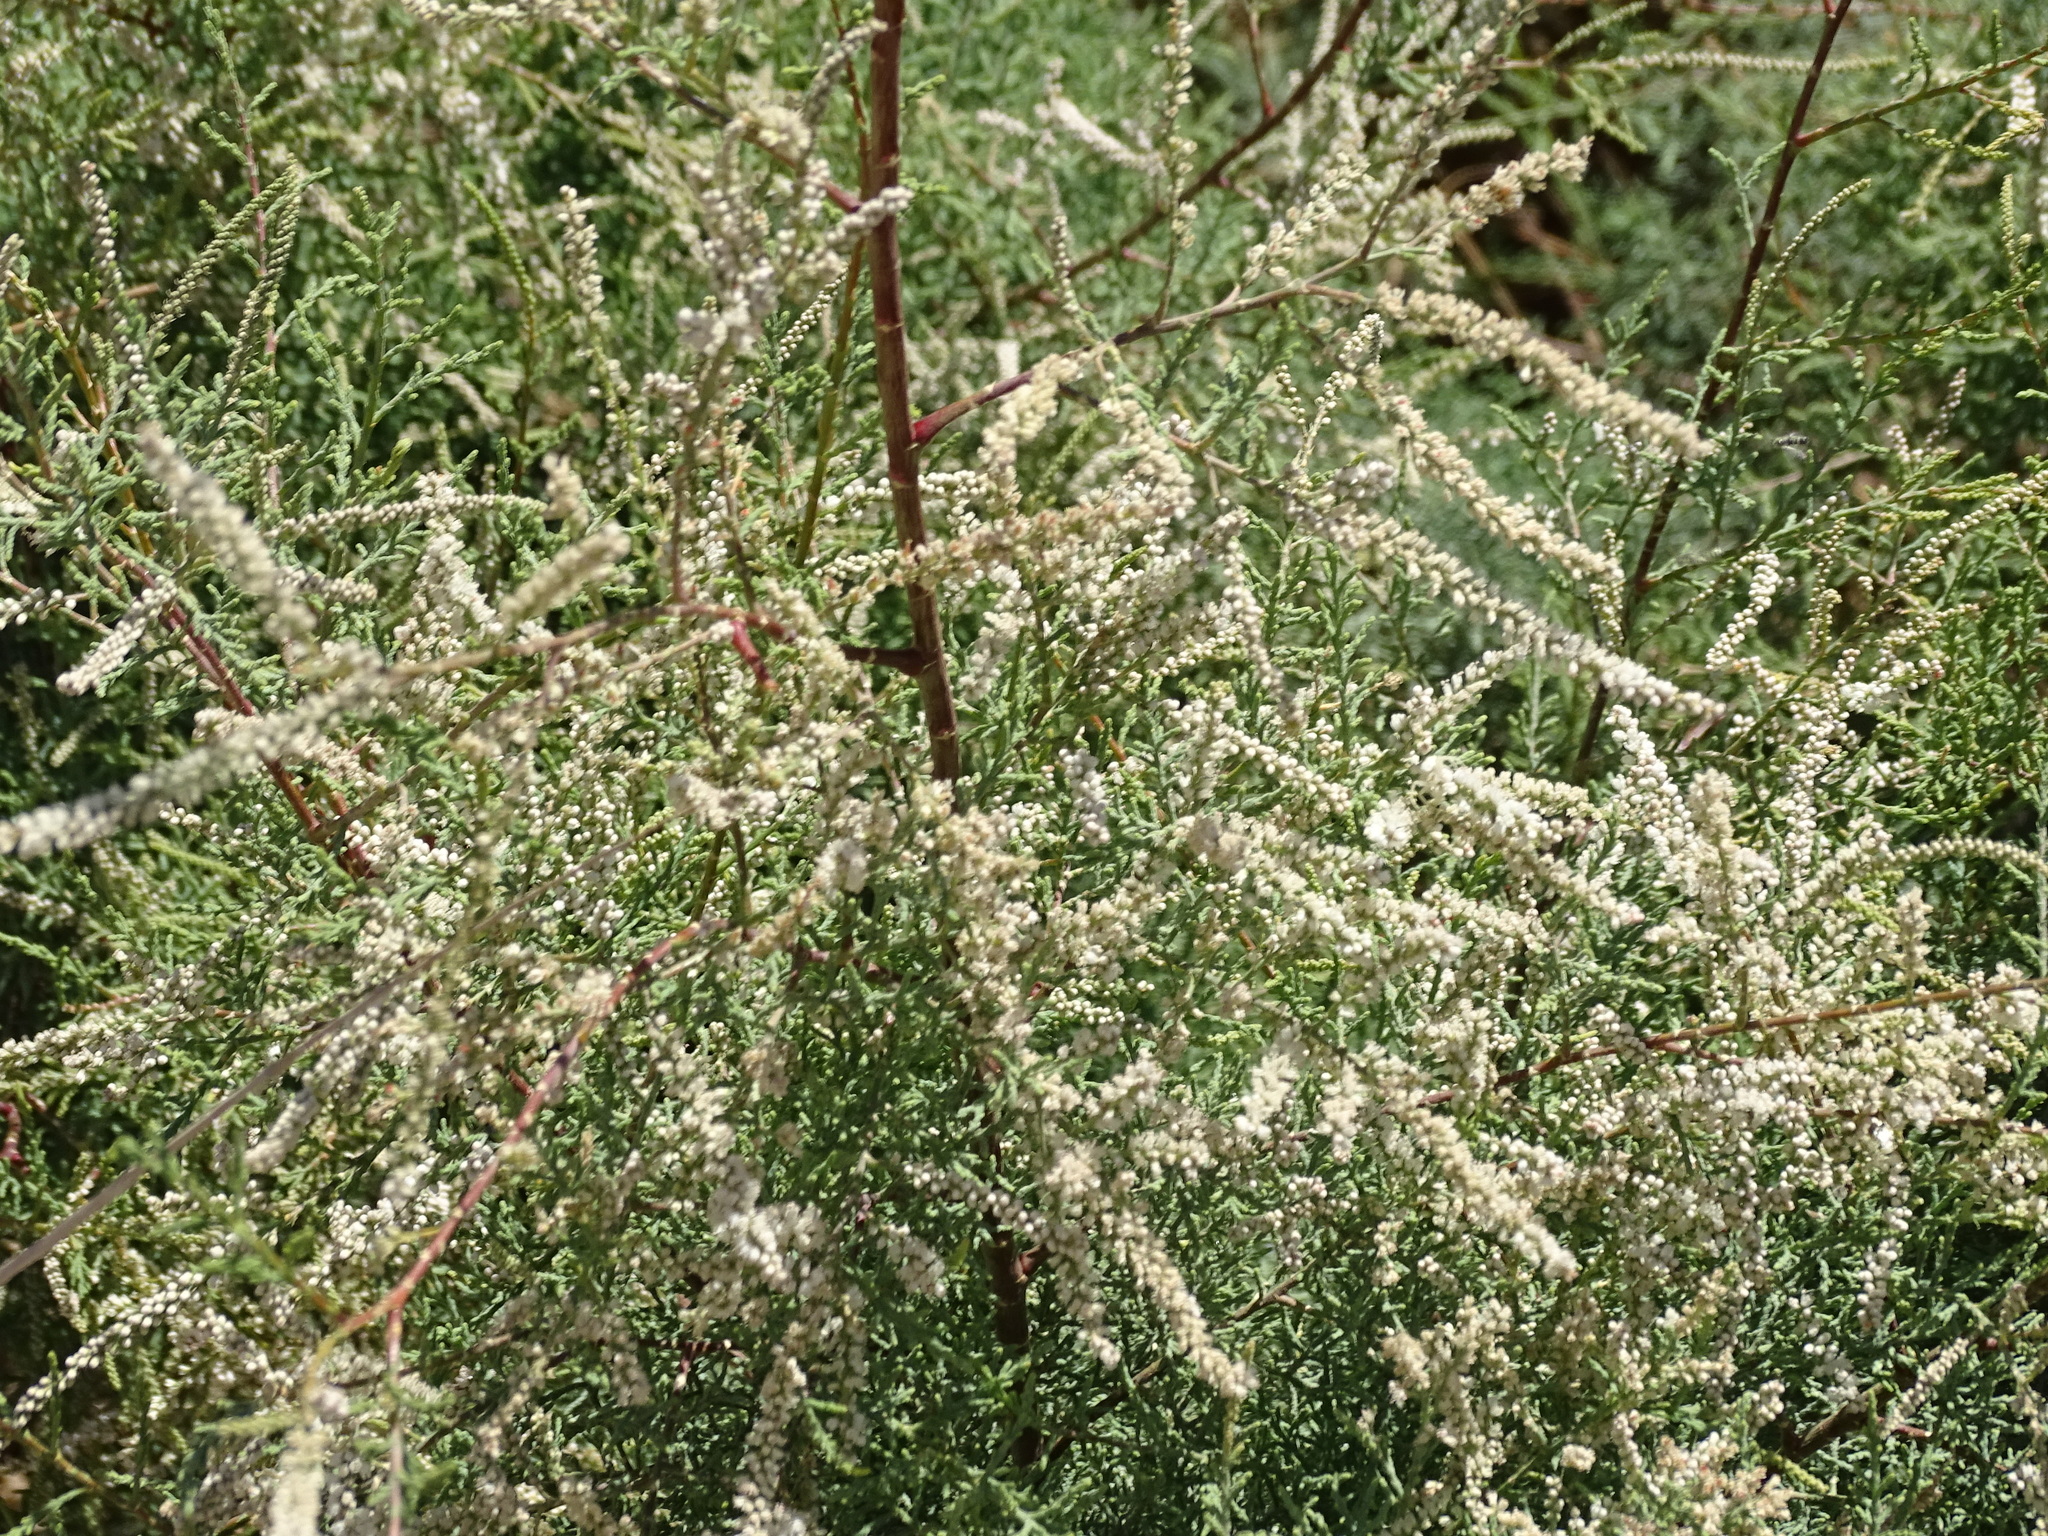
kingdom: Plantae
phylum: Tracheophyta
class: Magnoliopsida
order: Caryophyllales
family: Tamaricaceae
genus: Tamarix
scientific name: Tamarix nilotica
